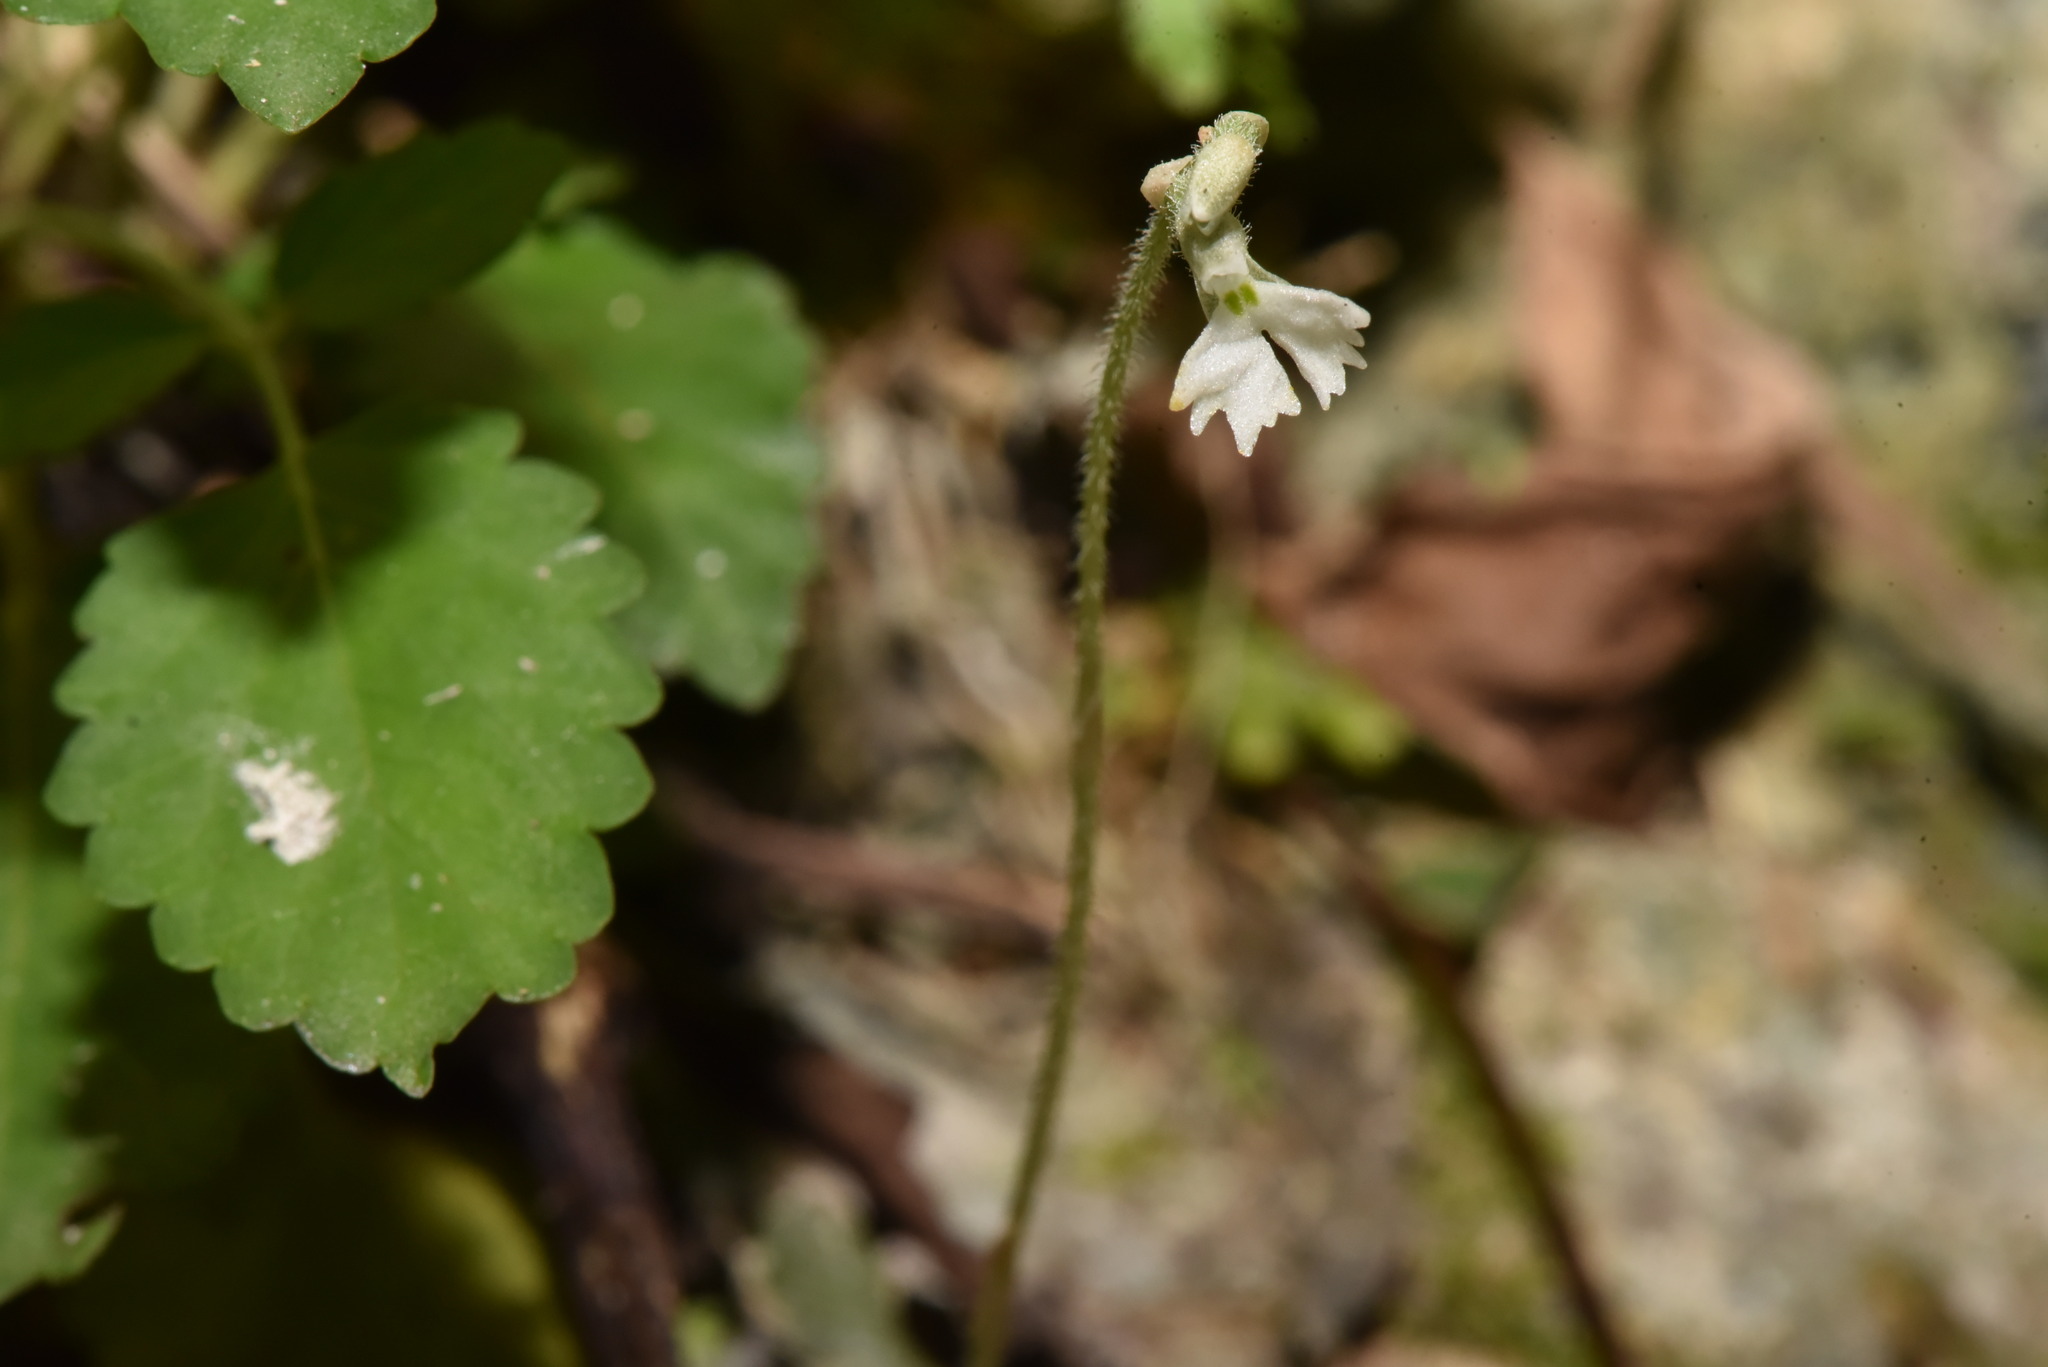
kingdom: Plantae
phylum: Tracheophyta
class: Liliopsida
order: Asparagales
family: Orchidaceae
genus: Cheirostylis
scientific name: Cheirostylis chinensis
